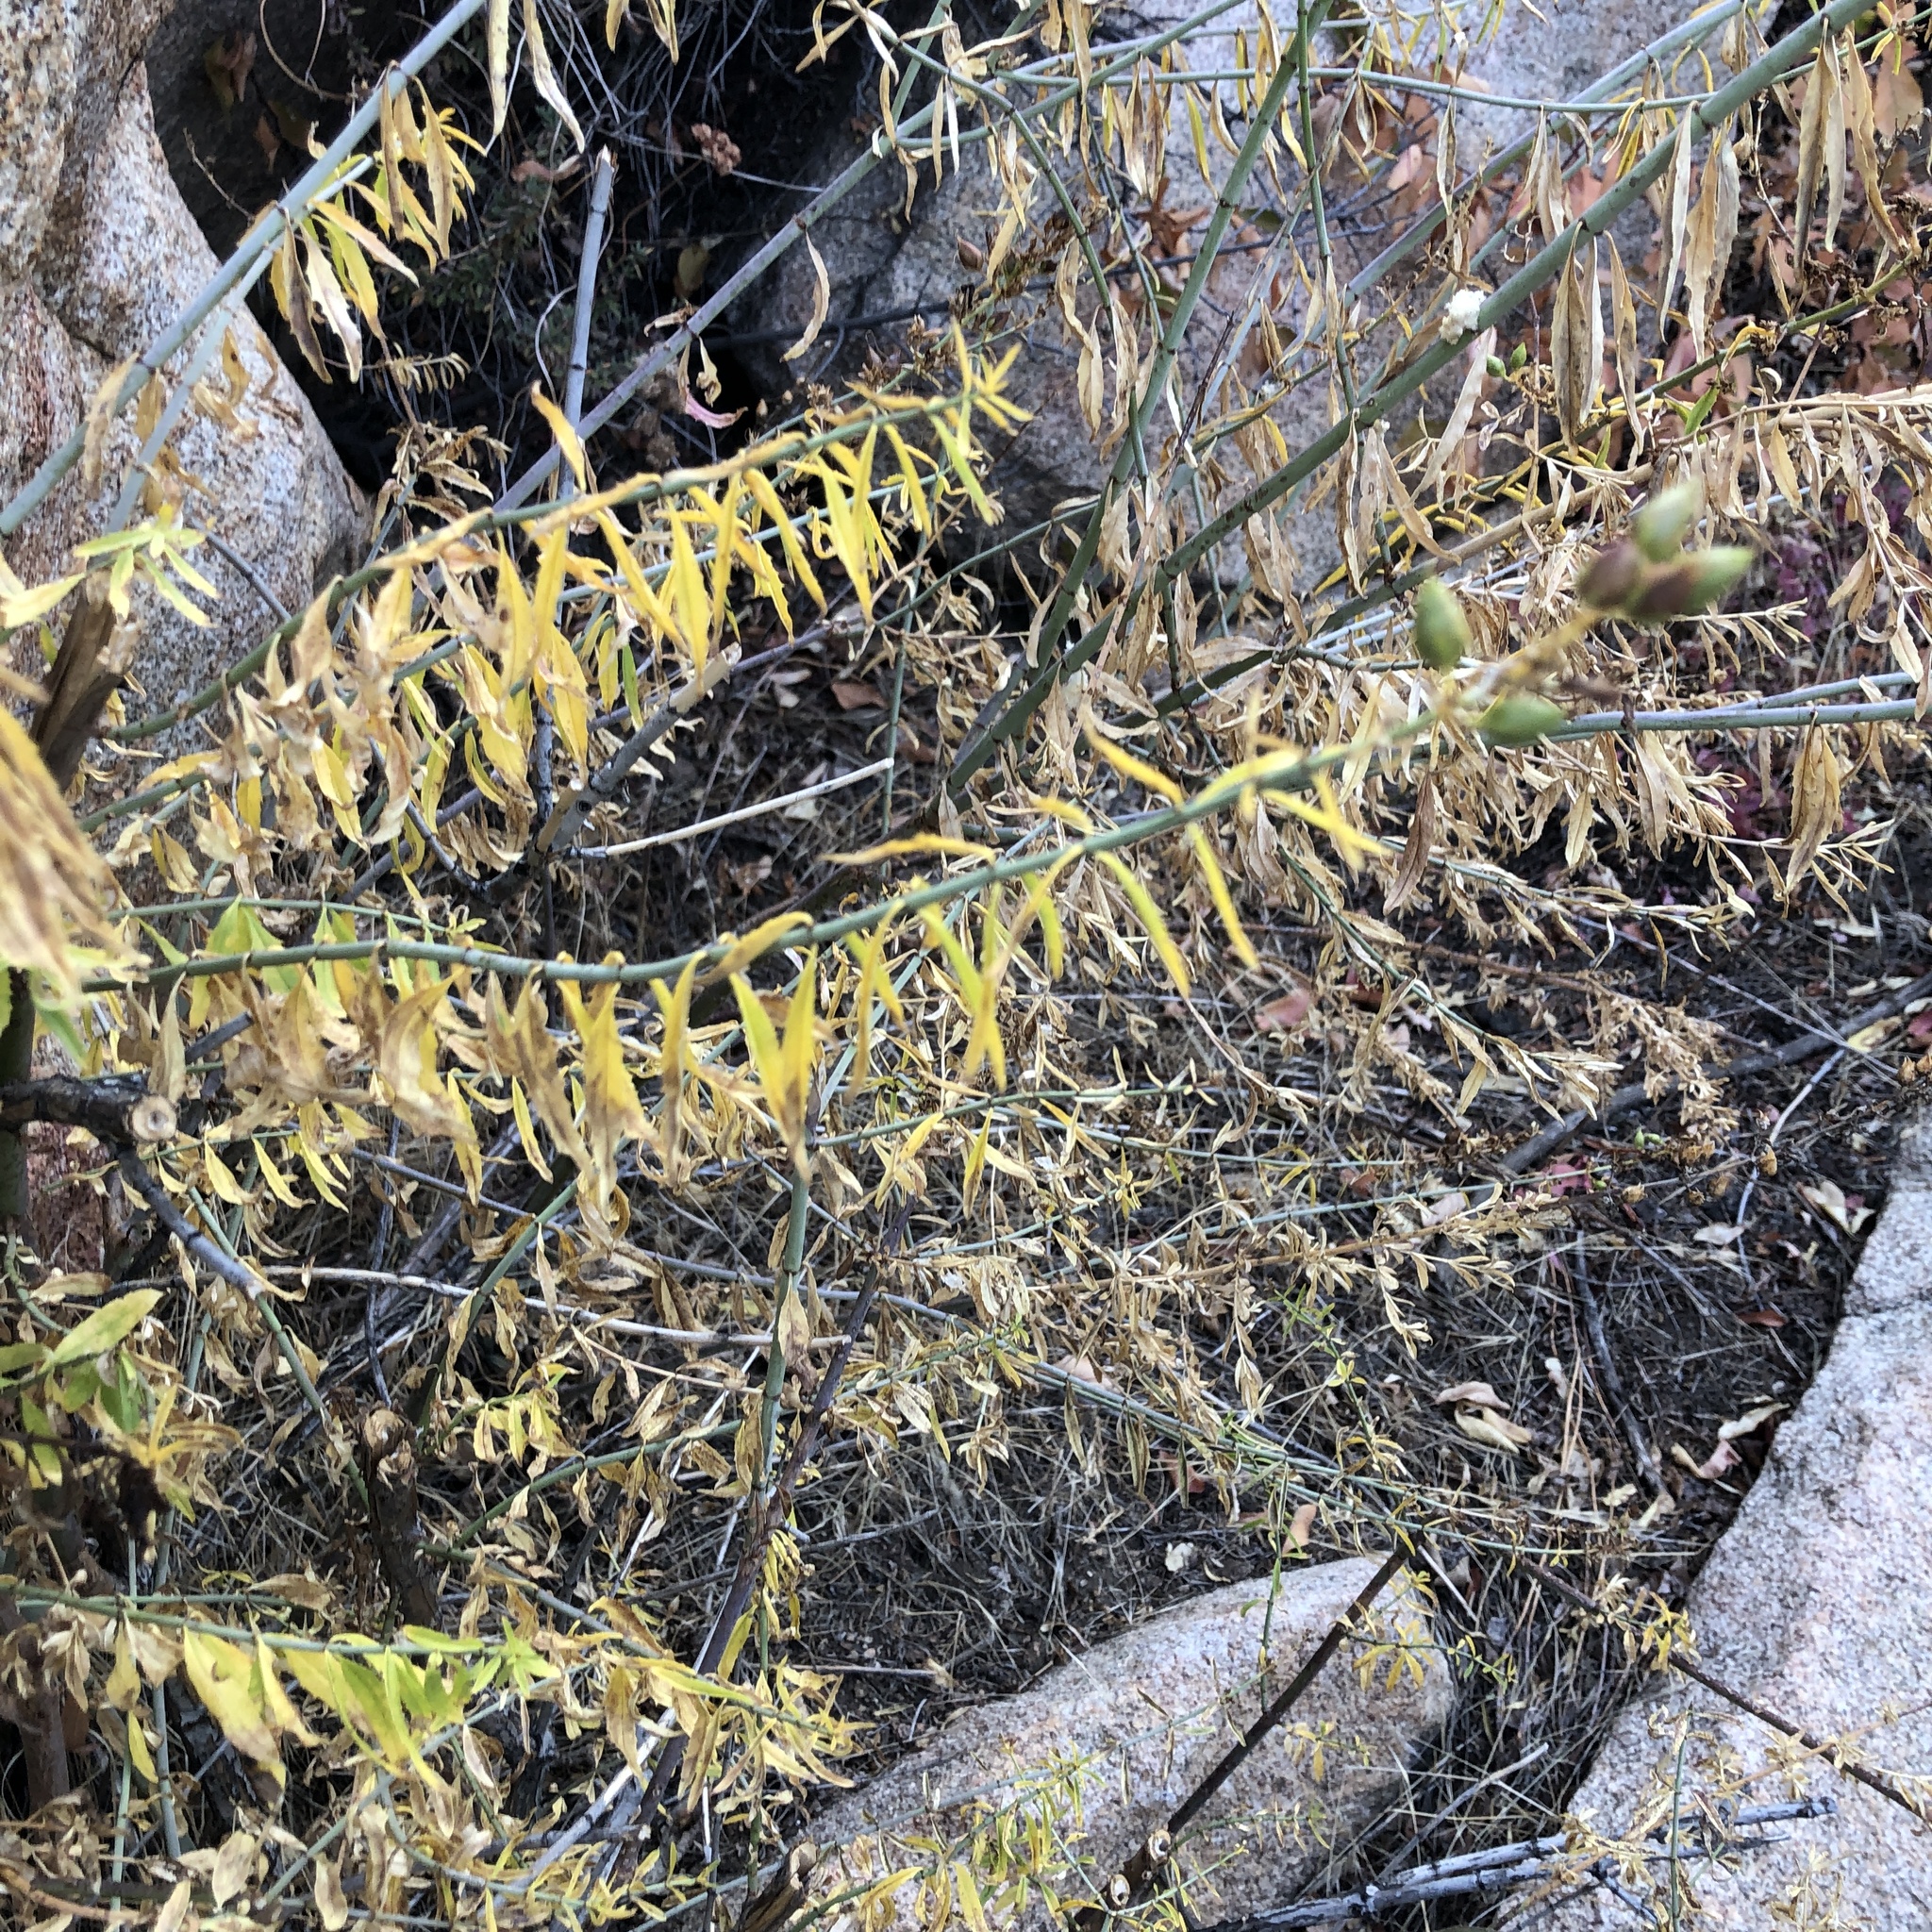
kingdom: Plantae
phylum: Tracheophyta
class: Magnoliopsida
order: Lamiales
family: Plantaginaceae
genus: Keckiella
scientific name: Keckiella ternata
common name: Scarlet keckiella
